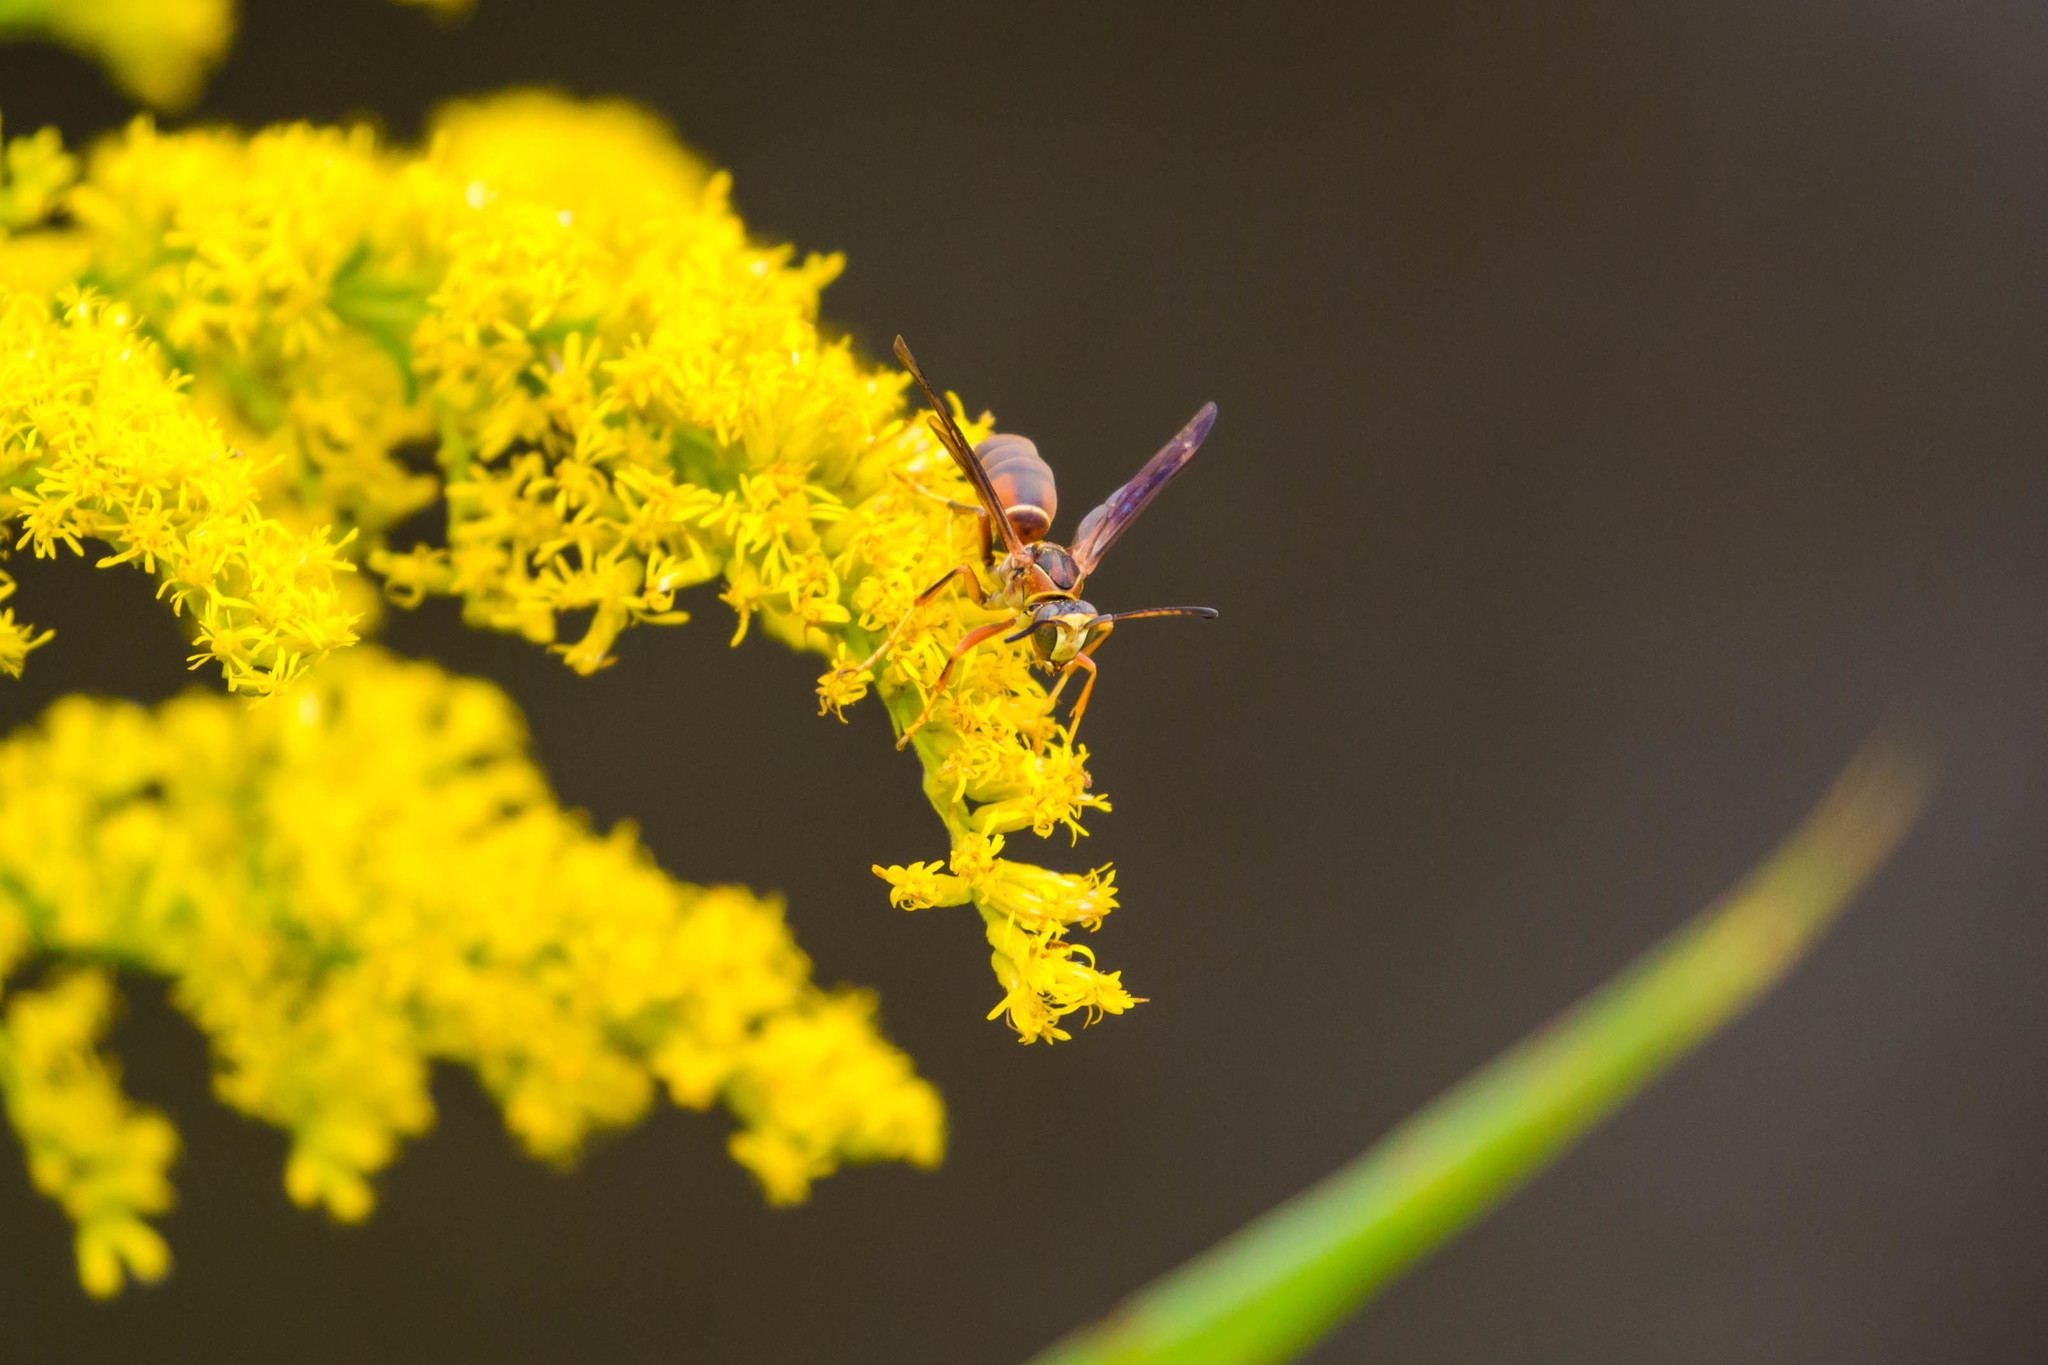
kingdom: Animalia
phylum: Arthropoda
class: Insecta
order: Hymenoptera
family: Eumenidae
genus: Polistes
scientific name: Polistes fuscatus
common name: Dark paper wasp
